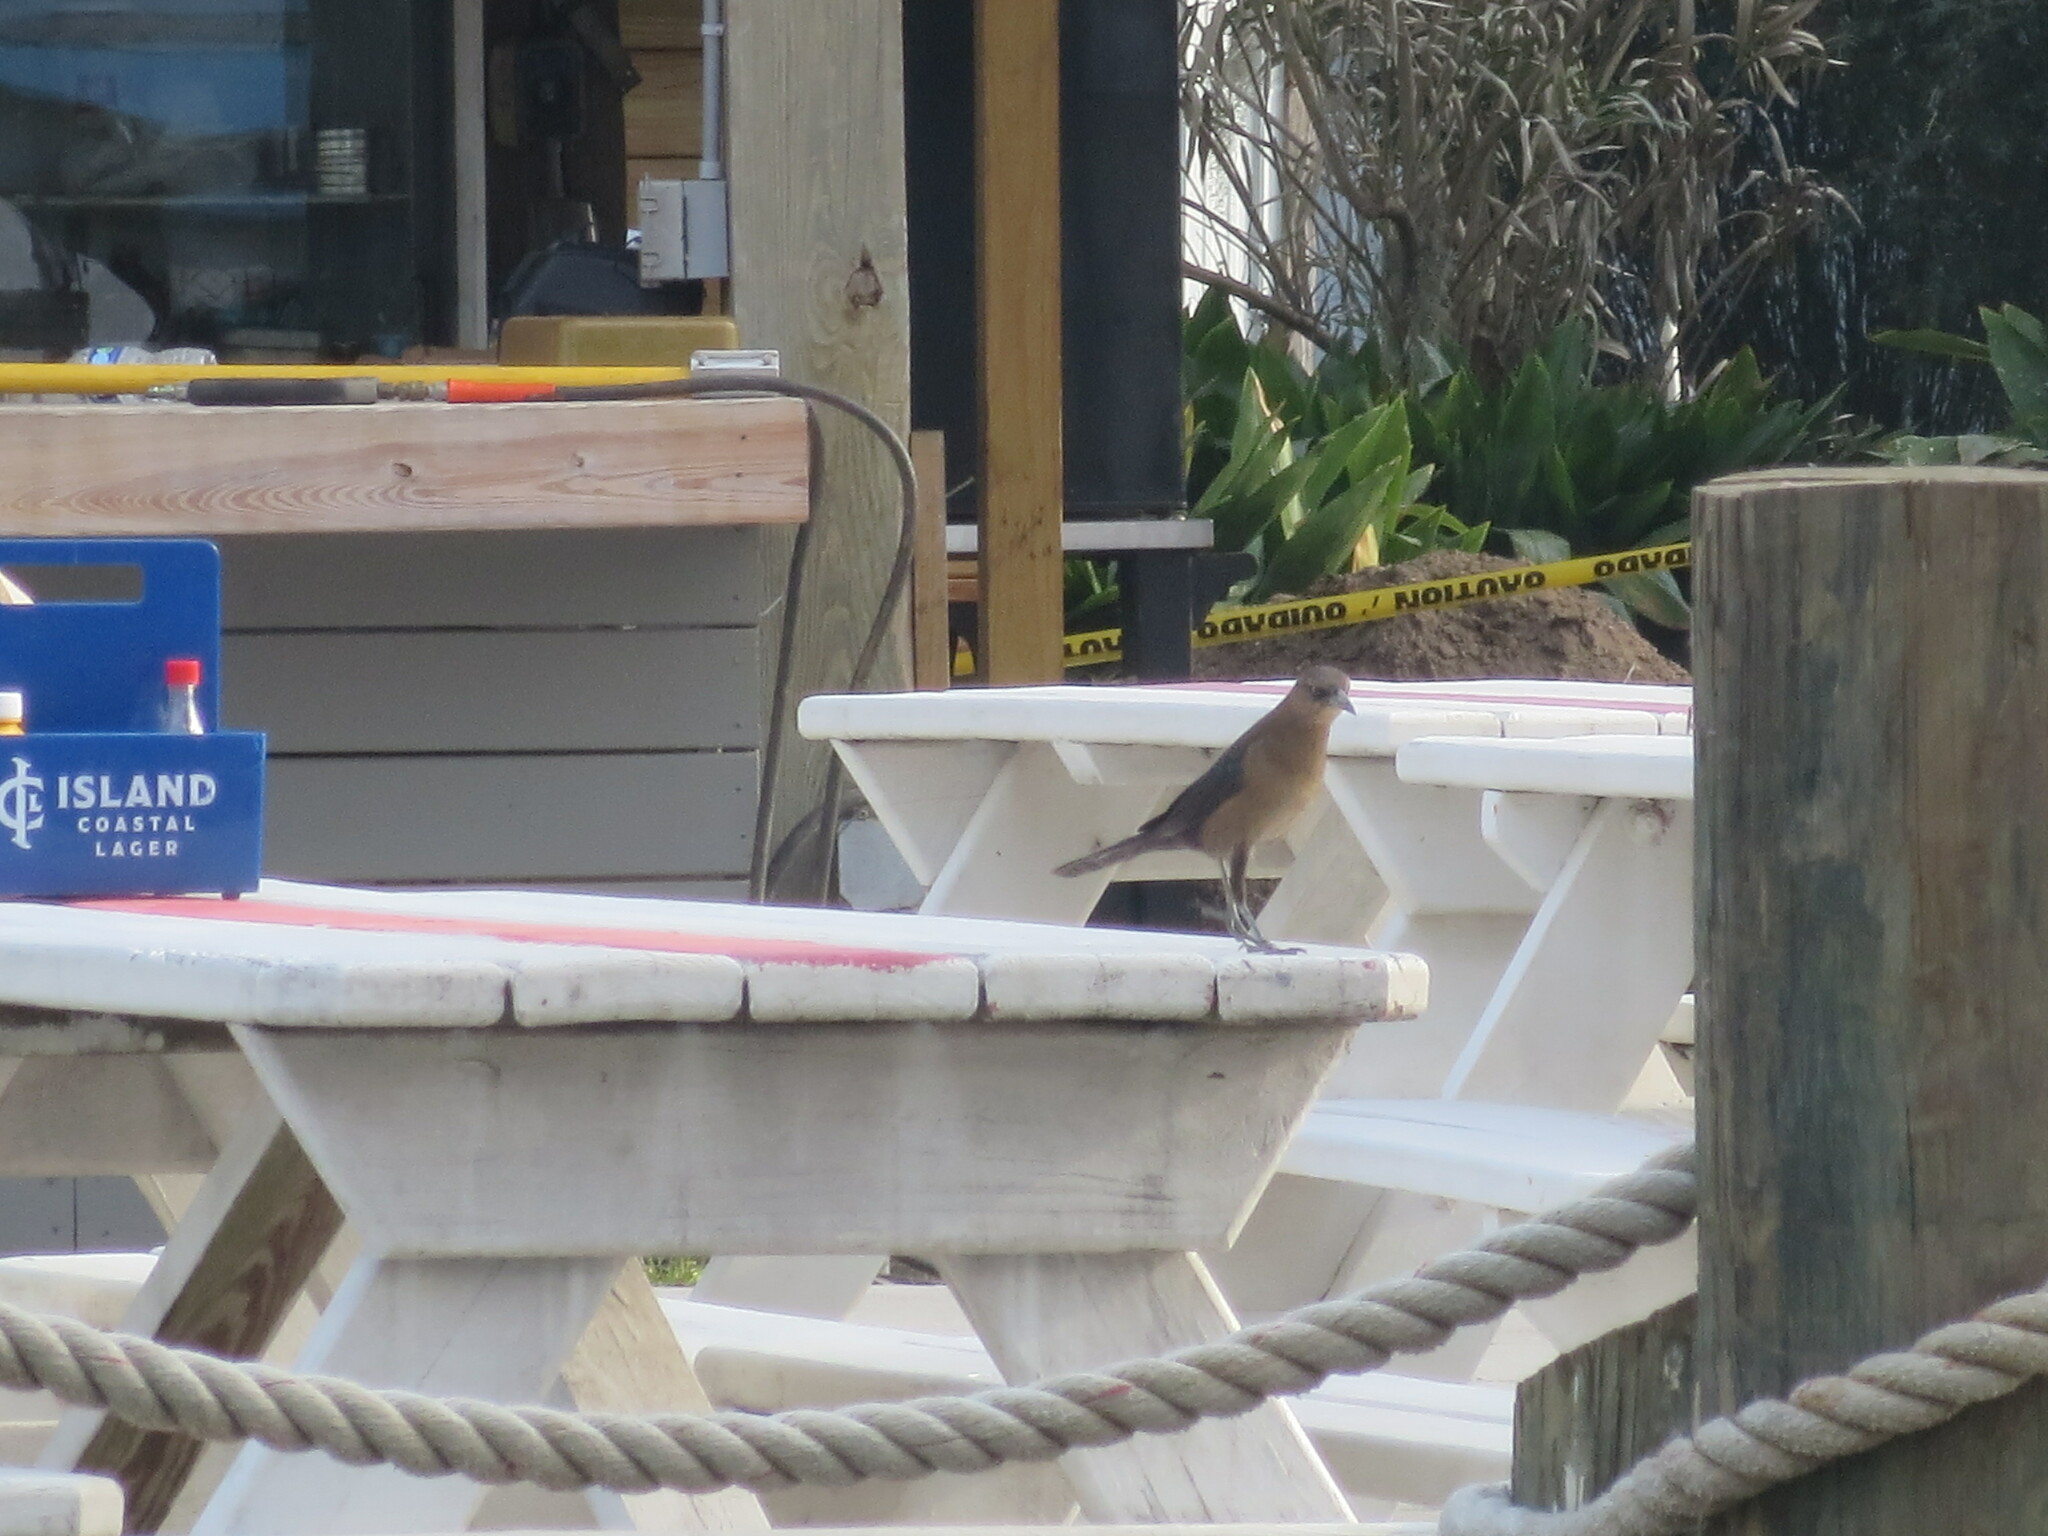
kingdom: Animalia
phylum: Chordata
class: Aves
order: Passeriformes
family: Icteridae
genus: Quiscalus
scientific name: Quiscalus major
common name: Boat-tailed grackle
